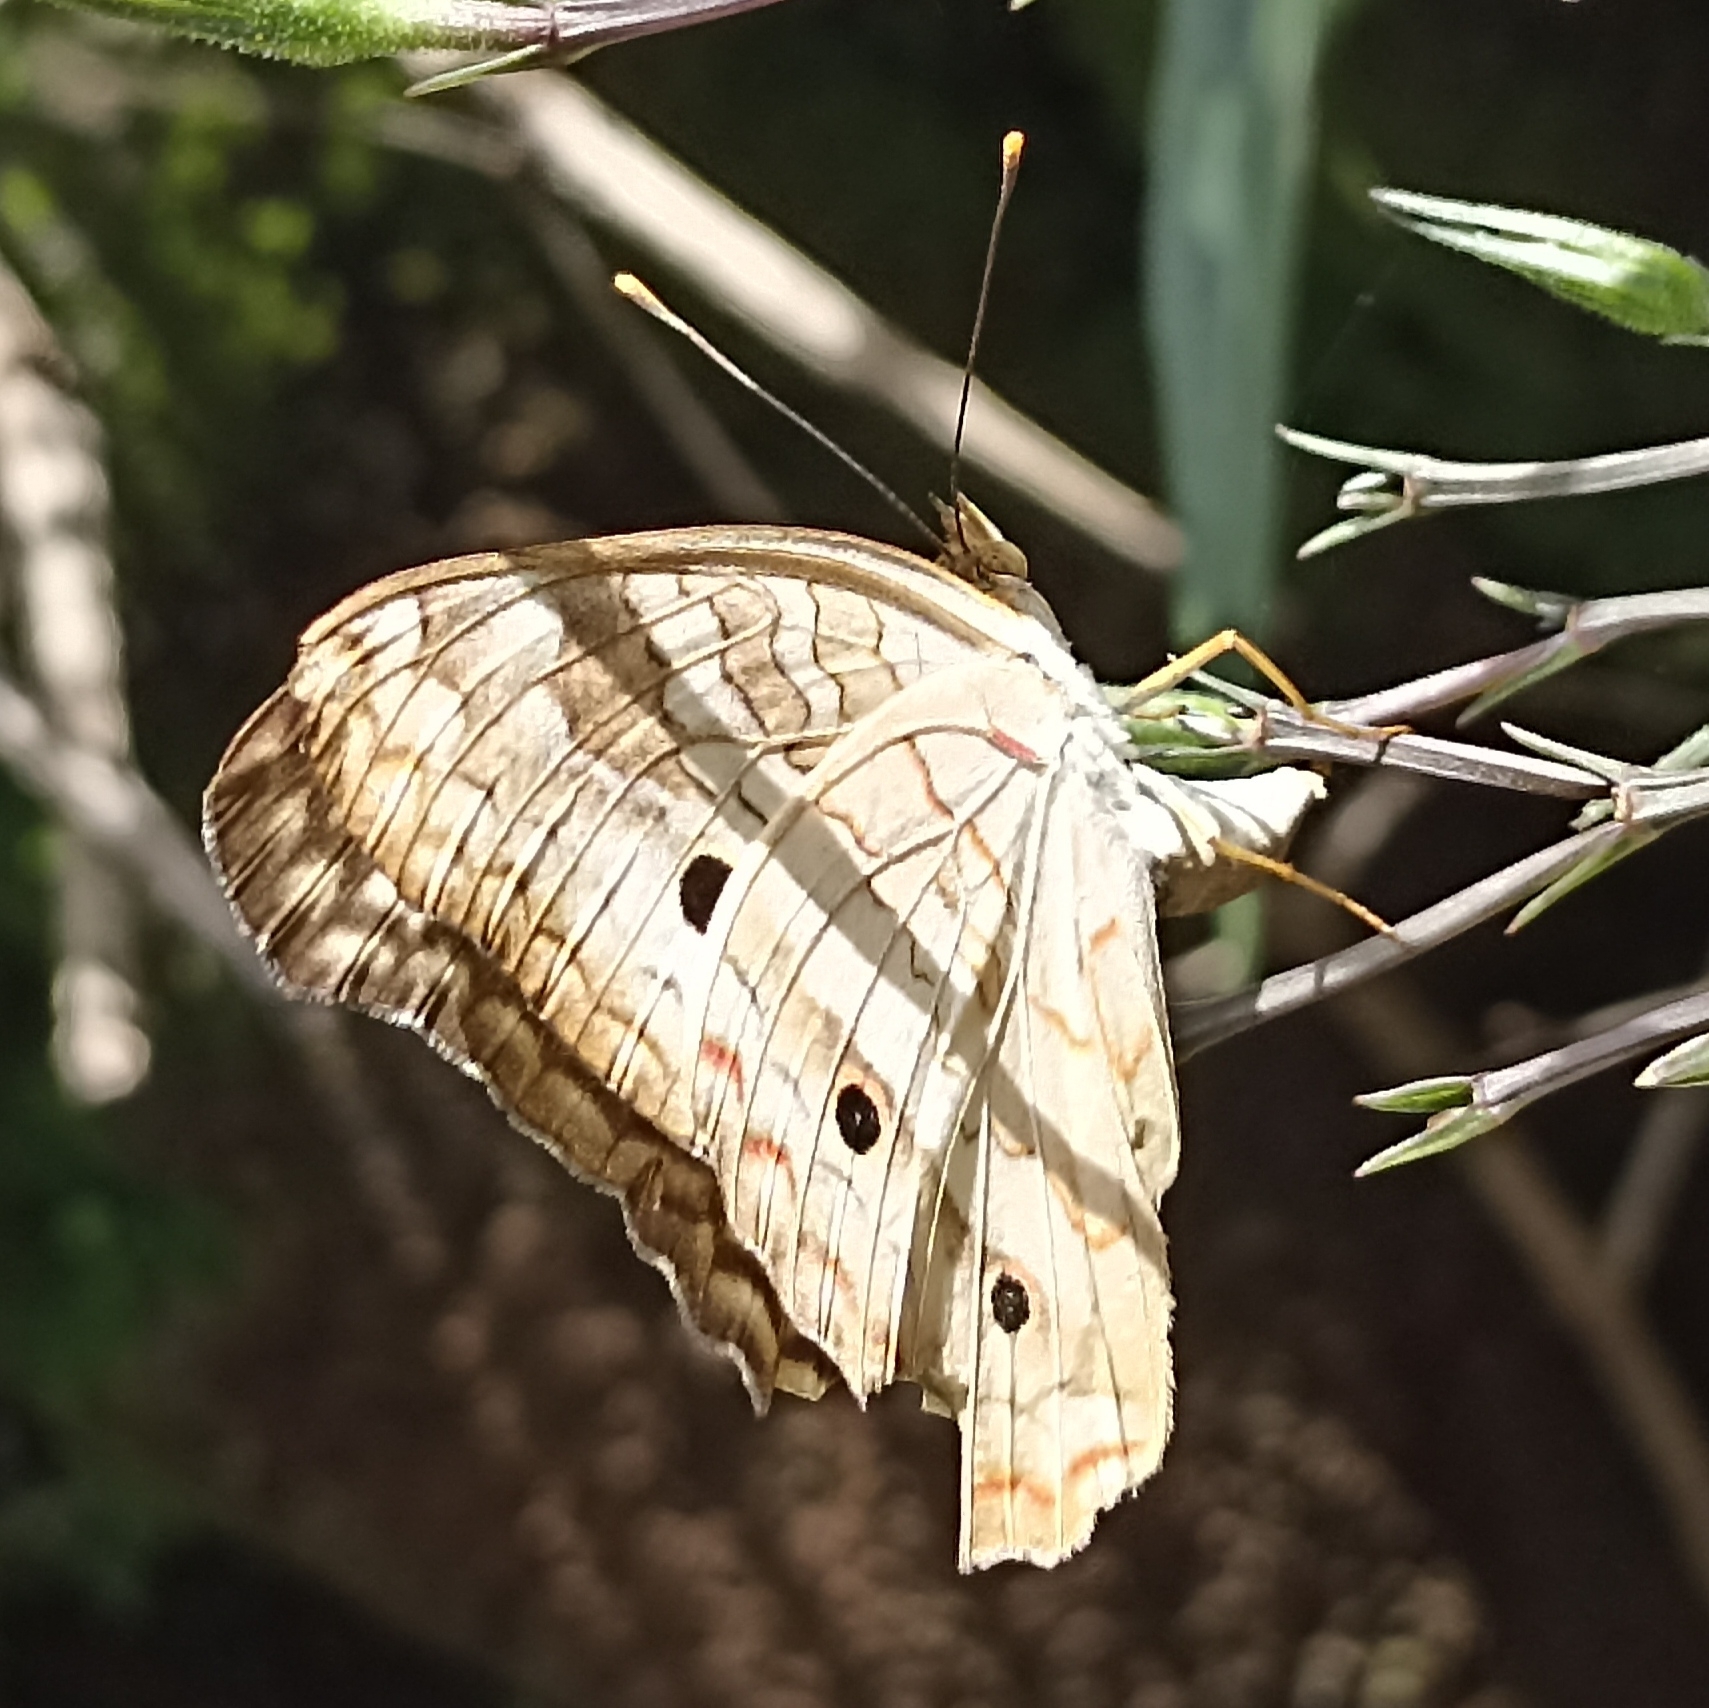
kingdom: Animalia
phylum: Arthropoda
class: Insecta
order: Lepidoptera
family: Nymphalidae
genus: Anartia
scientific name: Anartia jatrophae
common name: White peacock
